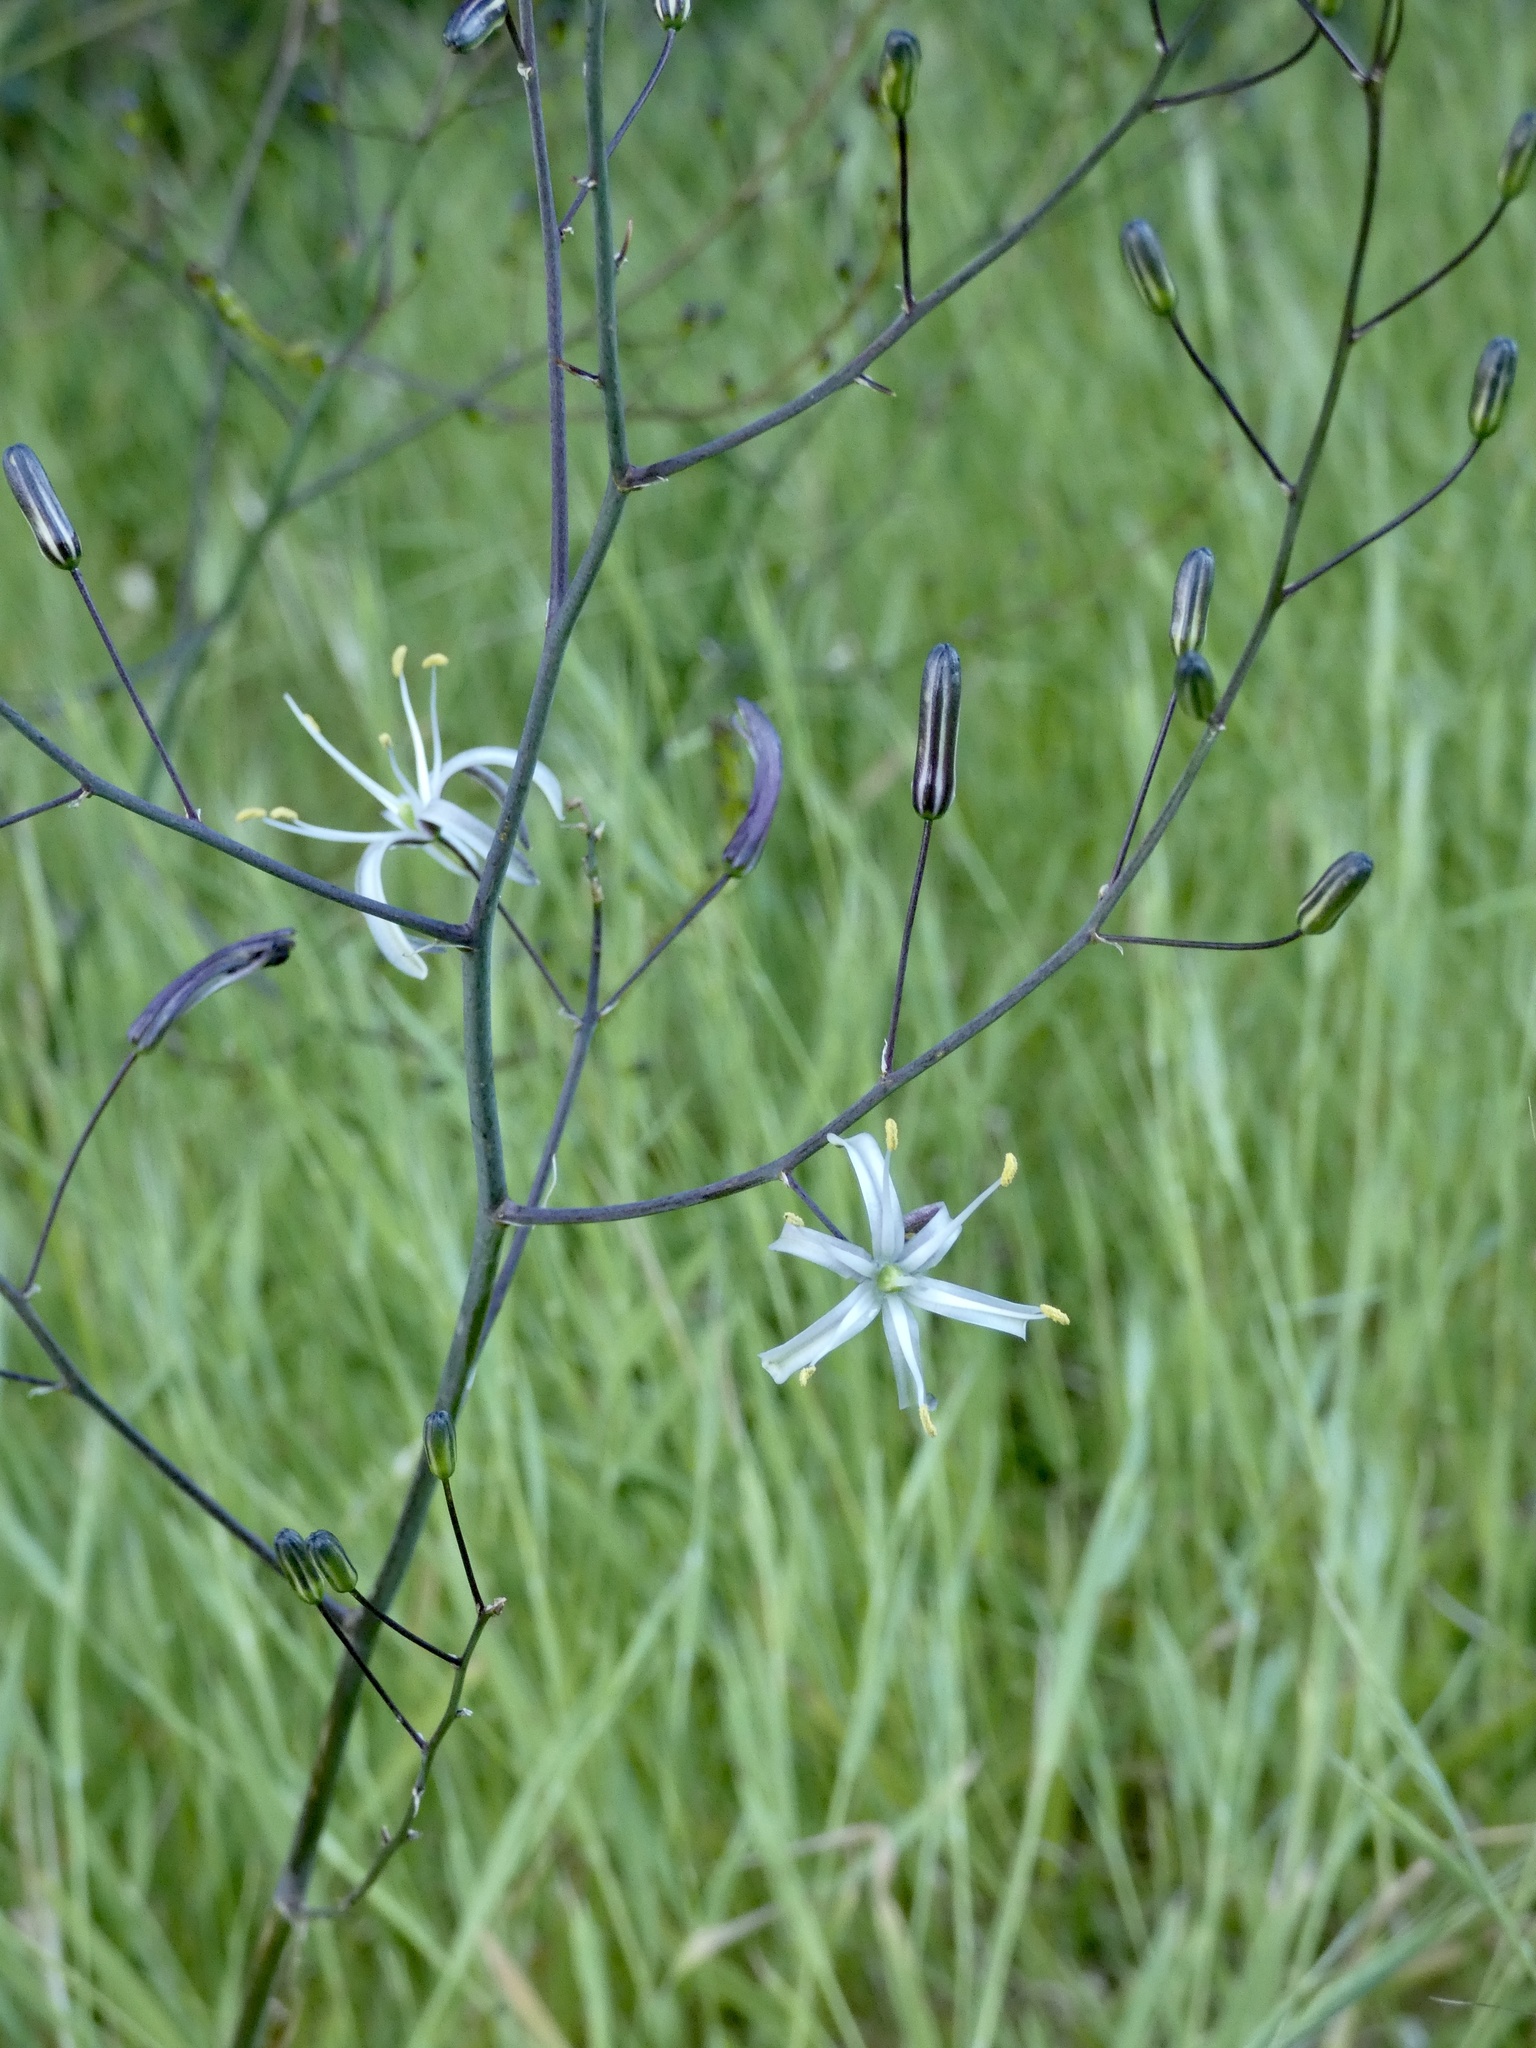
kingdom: Plantae
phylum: Tracheophyta
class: Liliopsida
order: Asparagales
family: Asparagaceae
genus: Chlorogalum
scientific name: Chlorogalum pomeridianum
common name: Amole
